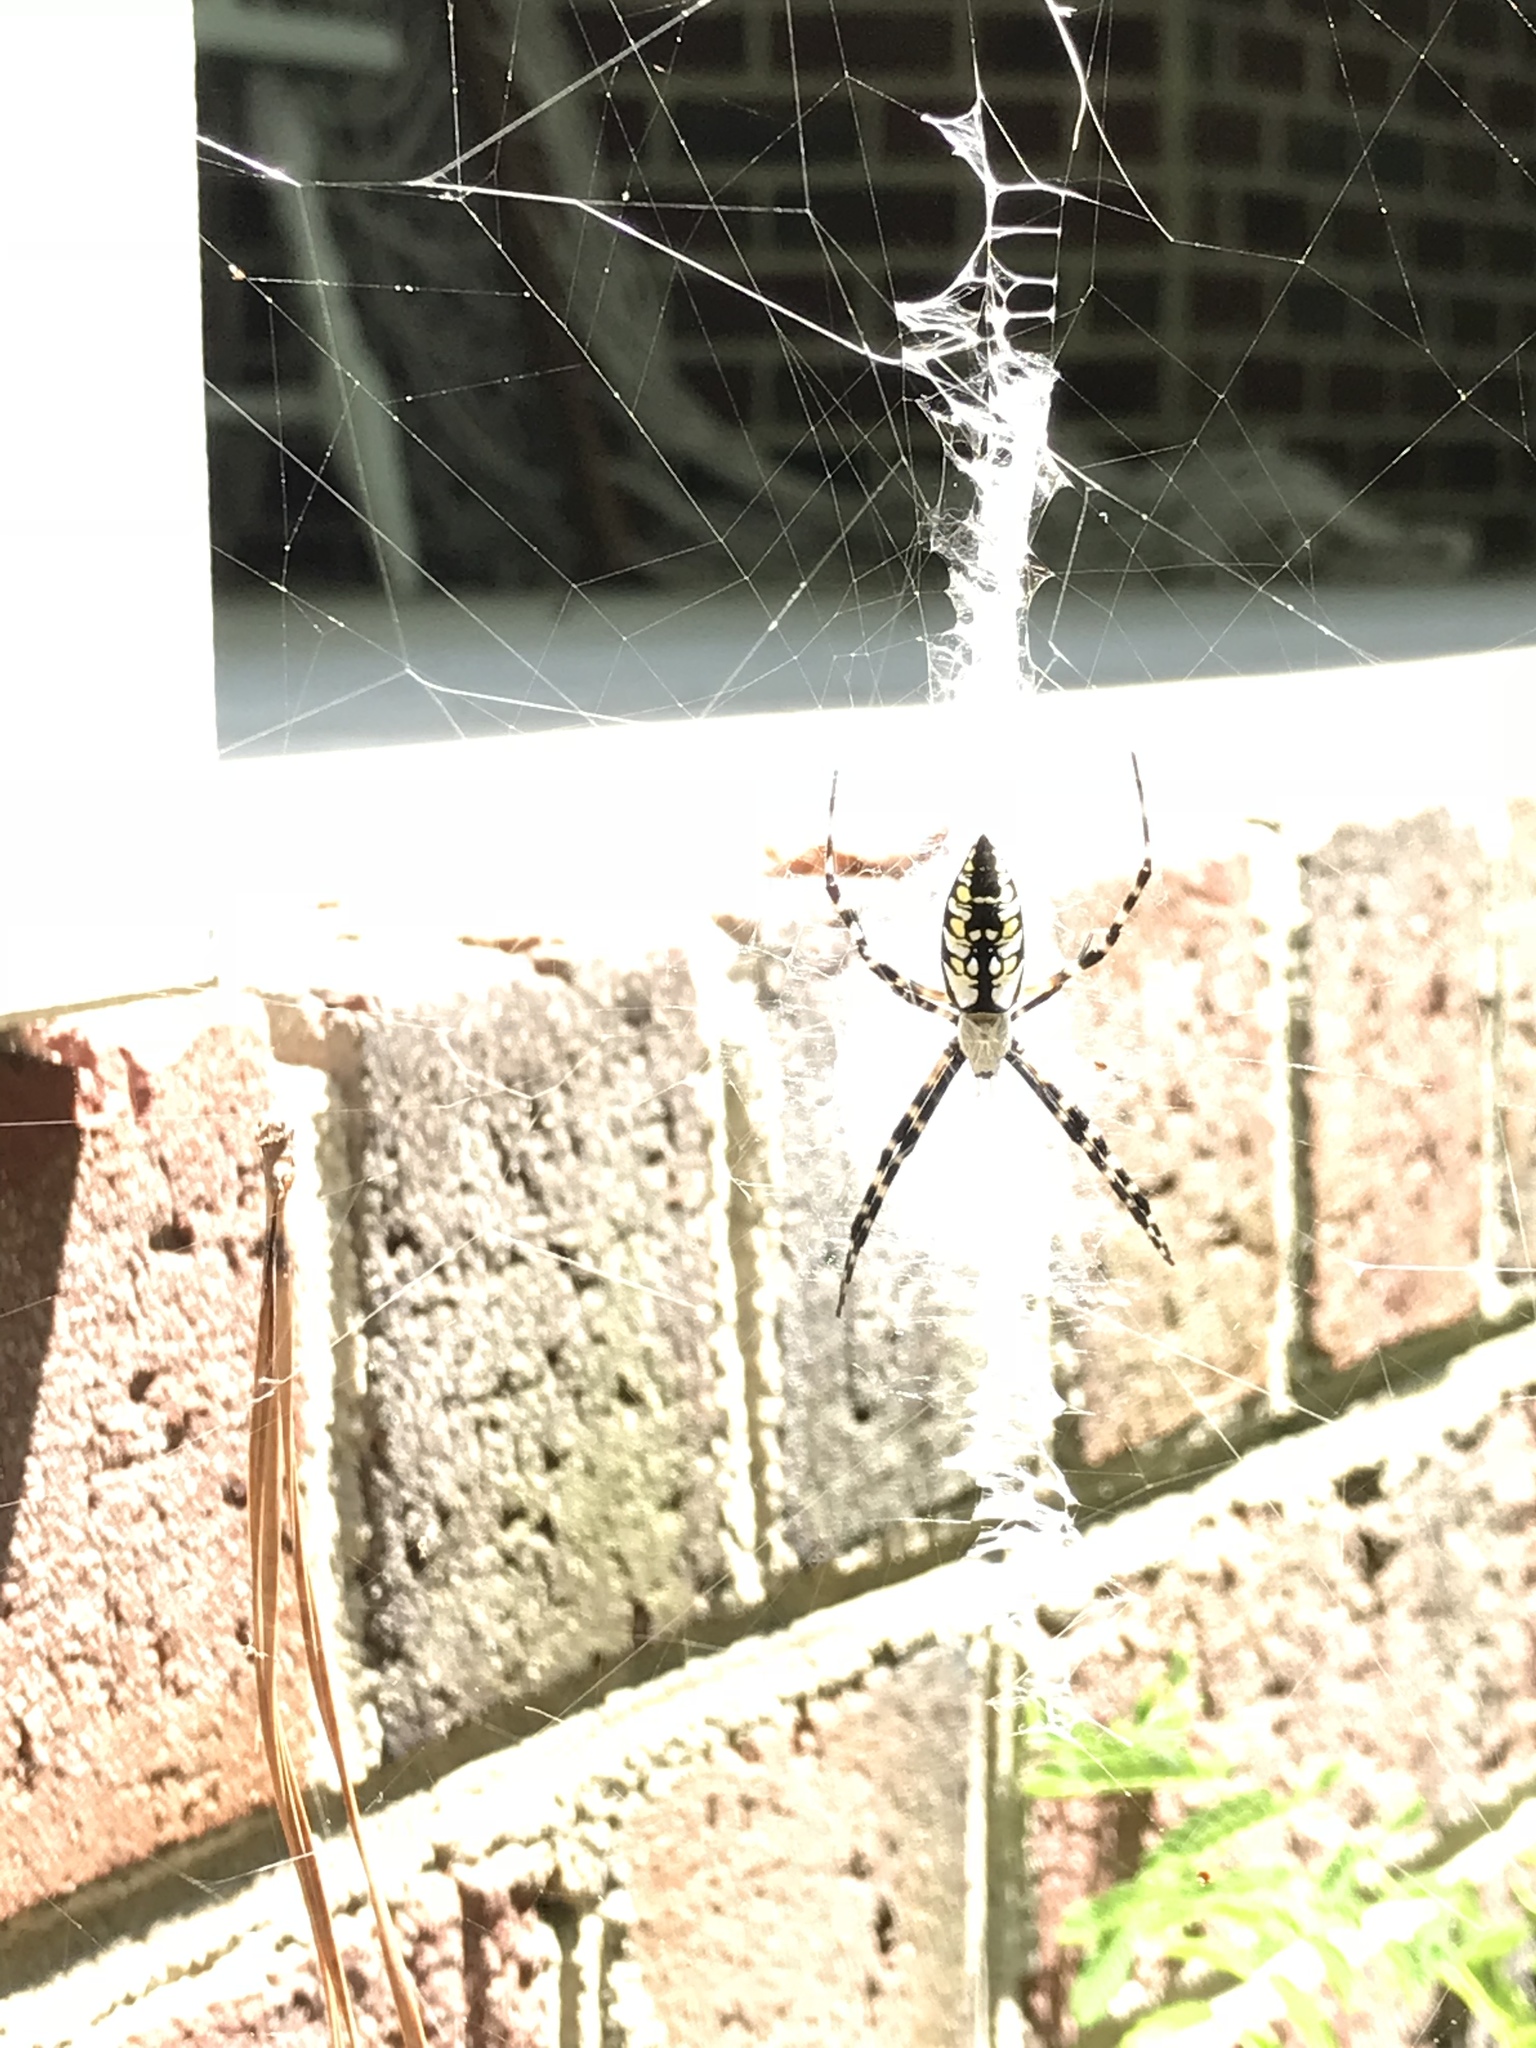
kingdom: Animalia
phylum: Arthropoda
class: Arachnida
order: Araneae
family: Araneidae
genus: Argiope
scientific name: Argiope aurantia
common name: Orb weavers
